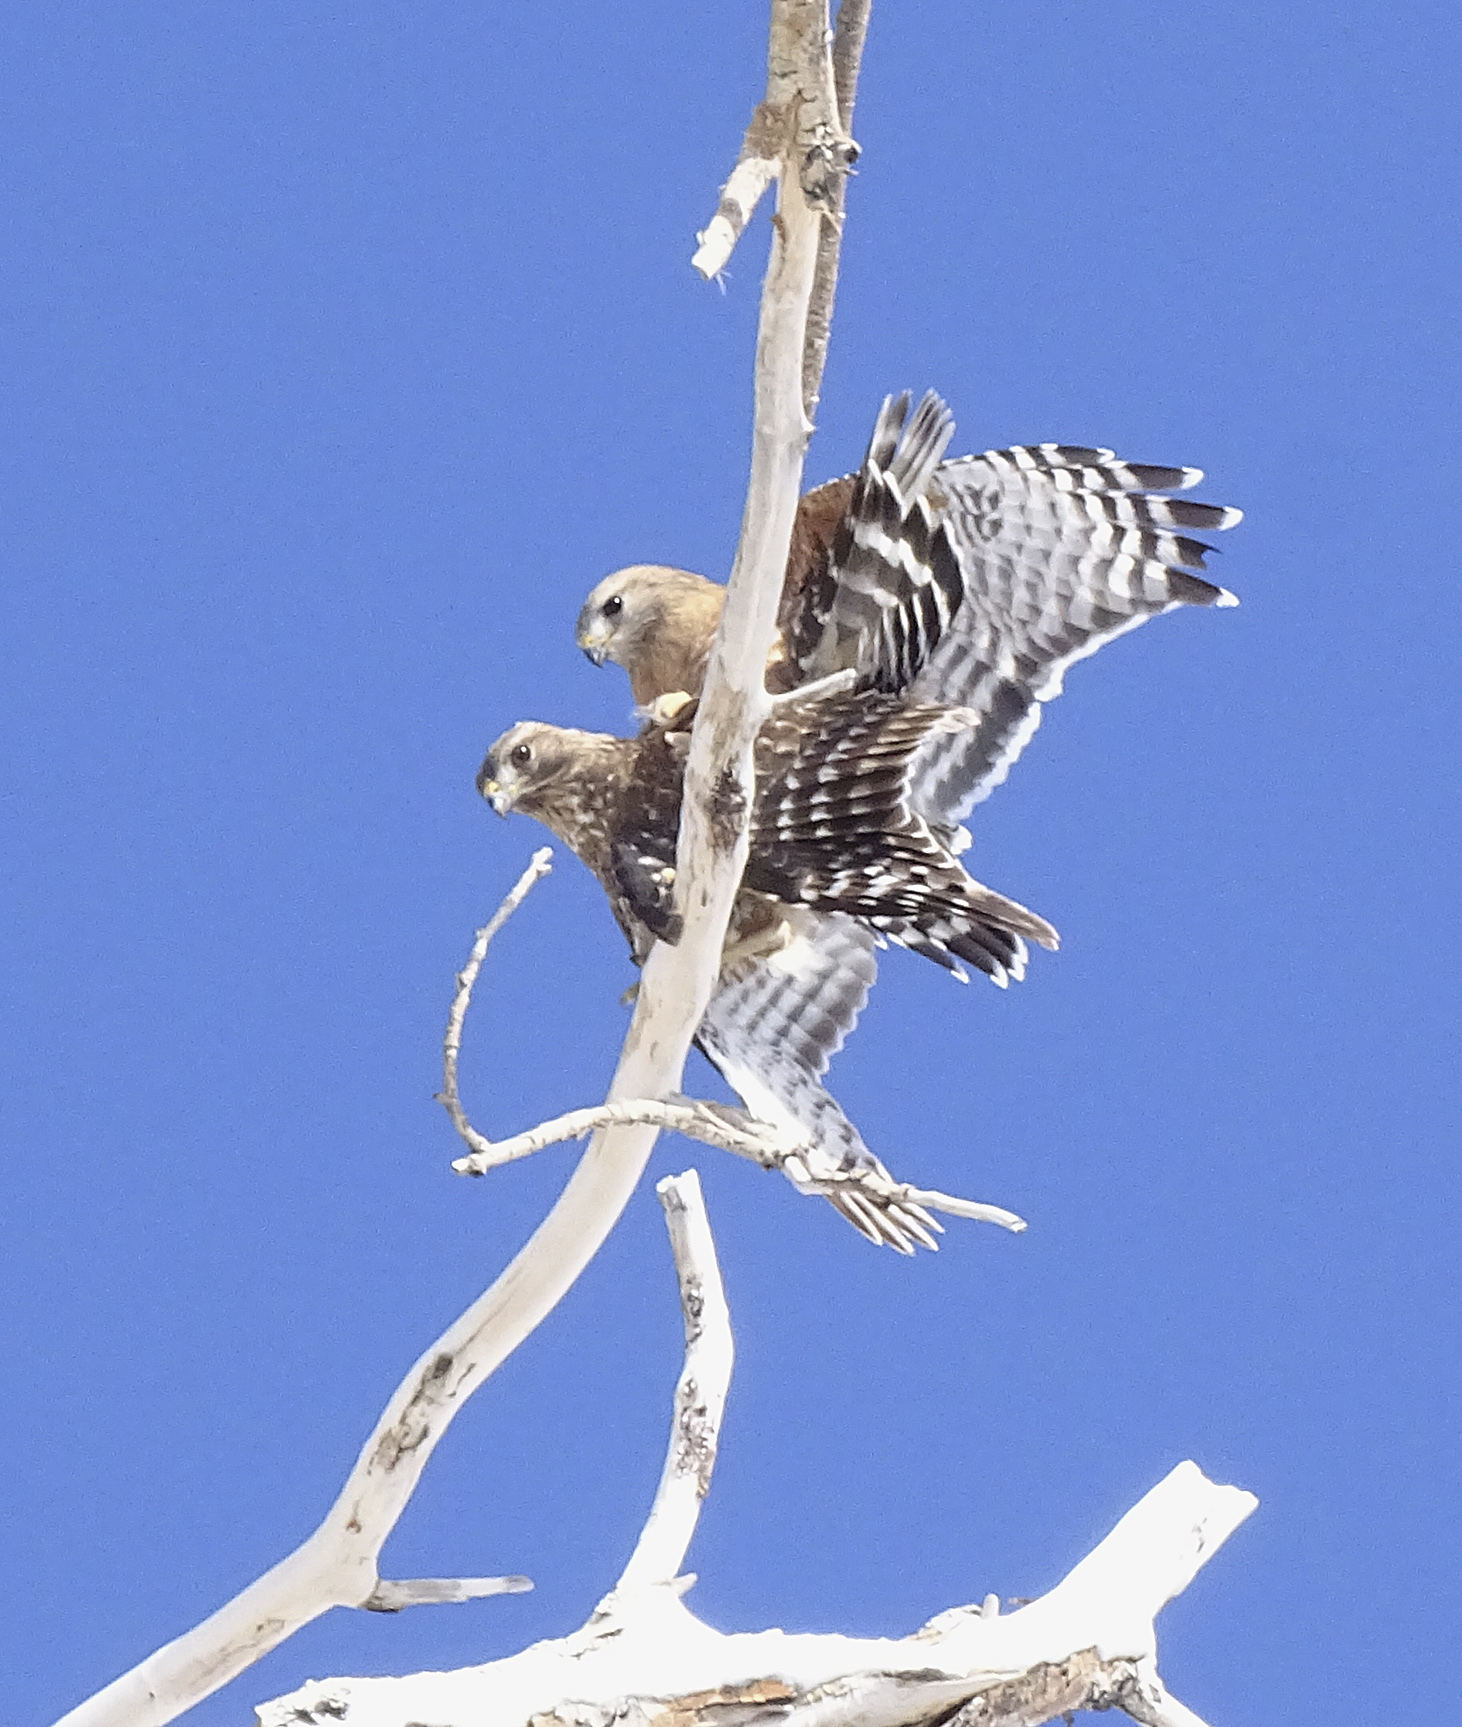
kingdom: Animalia
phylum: Chordata
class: Aves
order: Accipitriformes
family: Accipitridae
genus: Buteo
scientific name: Buteo lineatus
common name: Red-shouldered hawk
